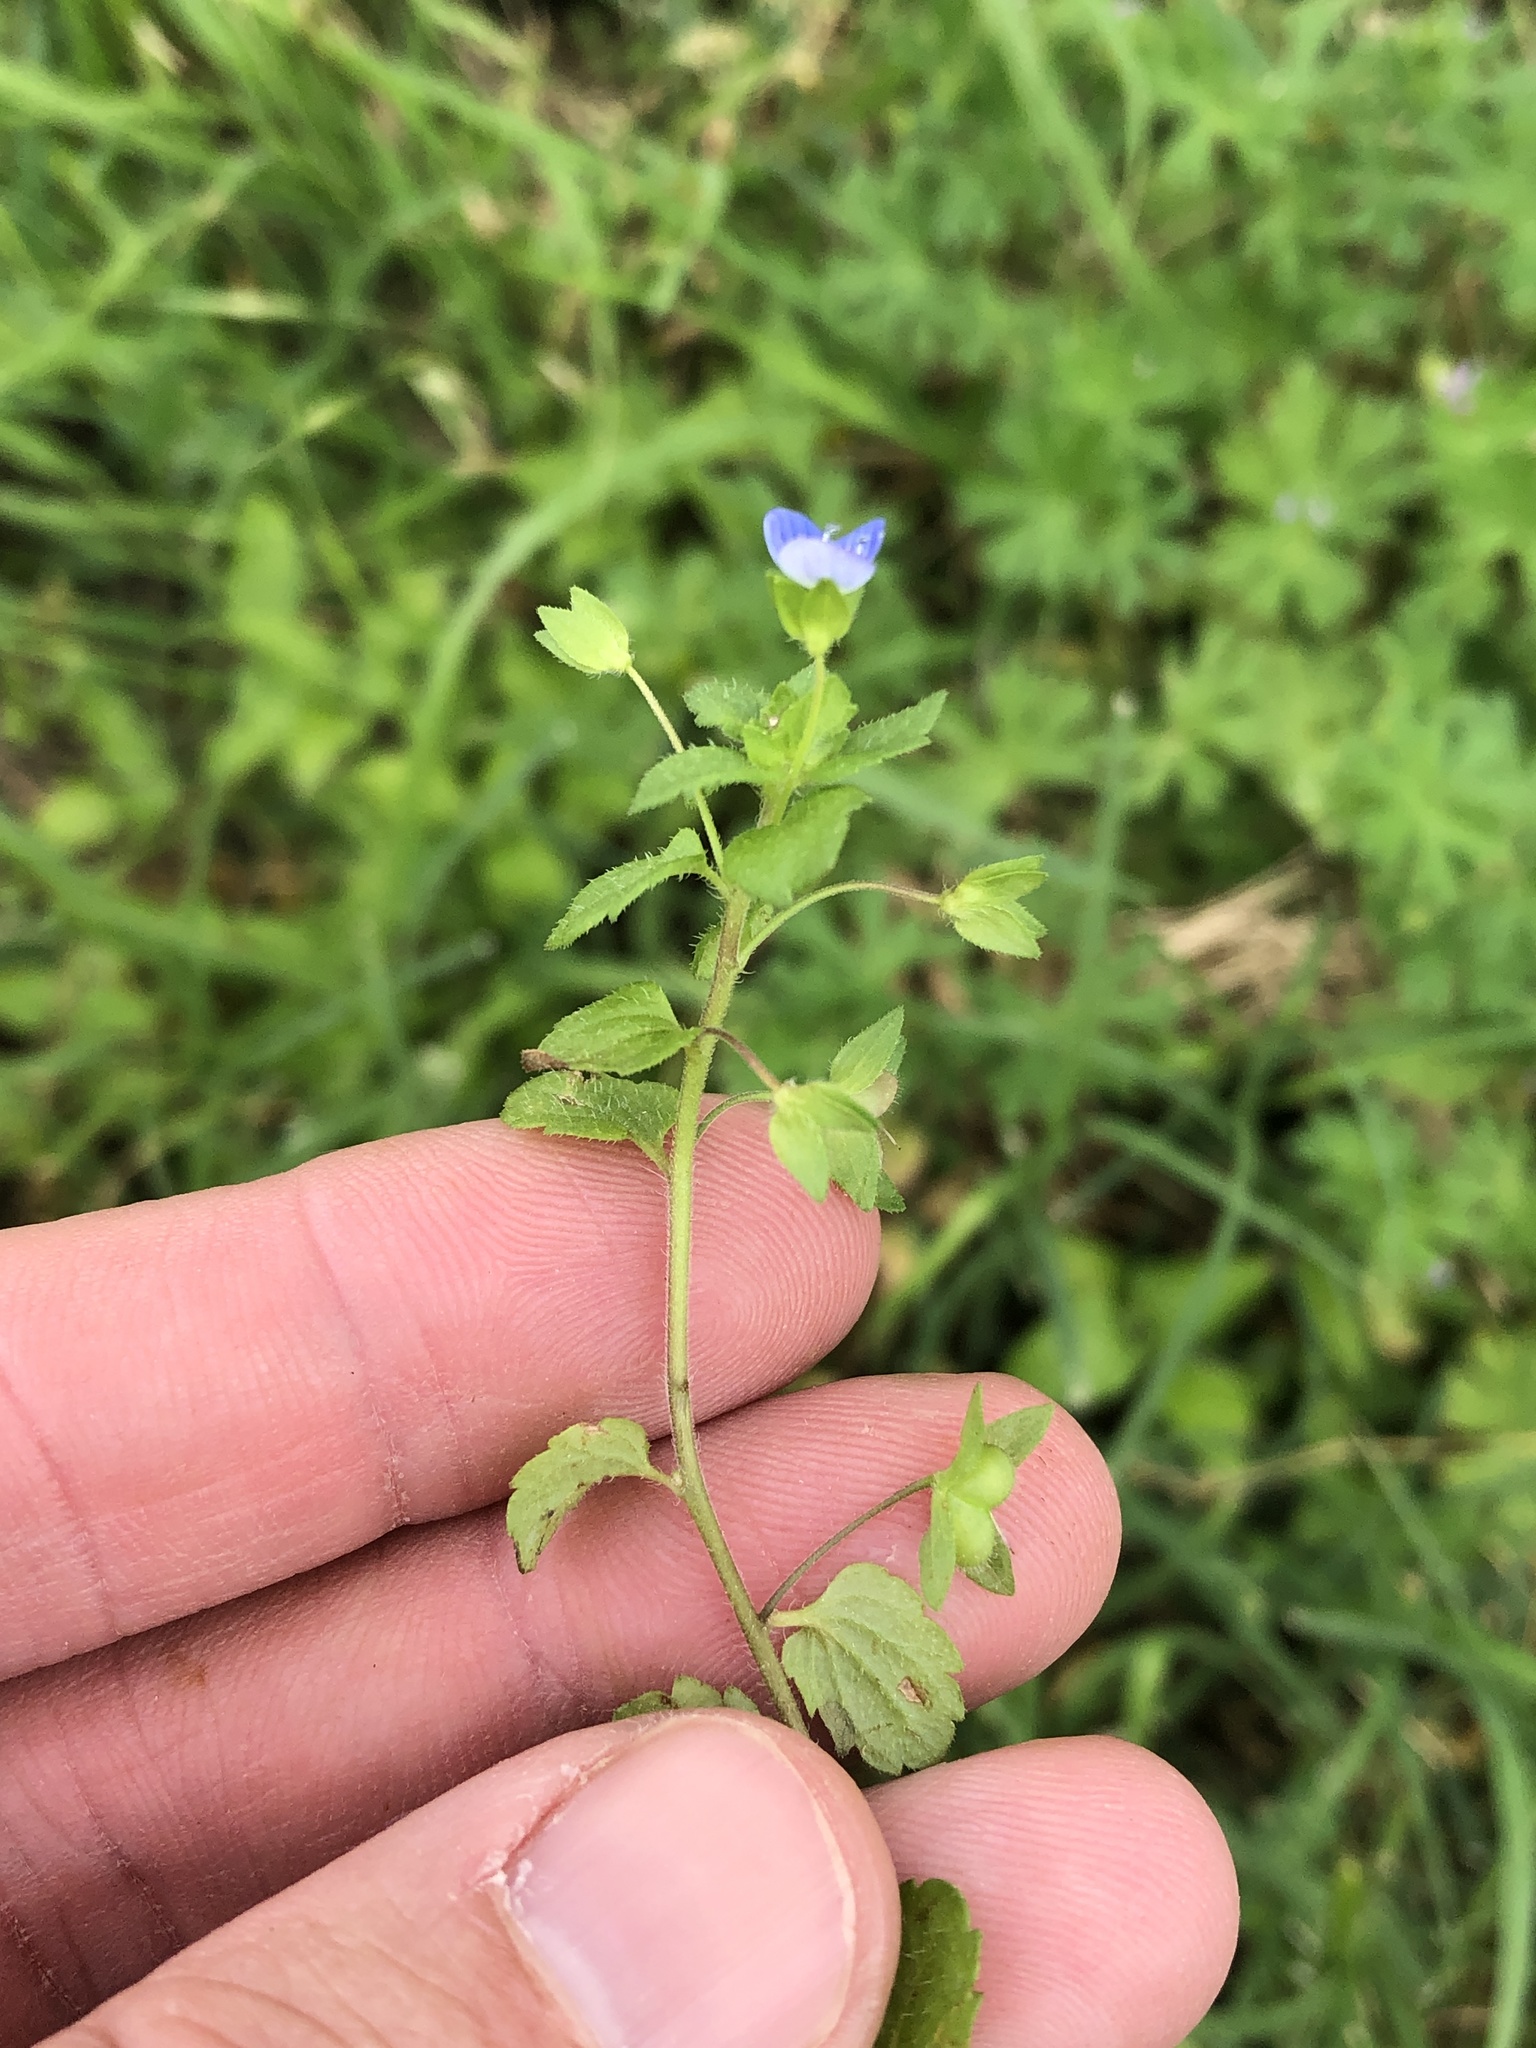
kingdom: Plantae
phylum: Tracheophyta
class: Magnoliopsida
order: Lamiales
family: Plantaginaceae
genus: Veronica
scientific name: Veronica persica
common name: Common field-speedwell
